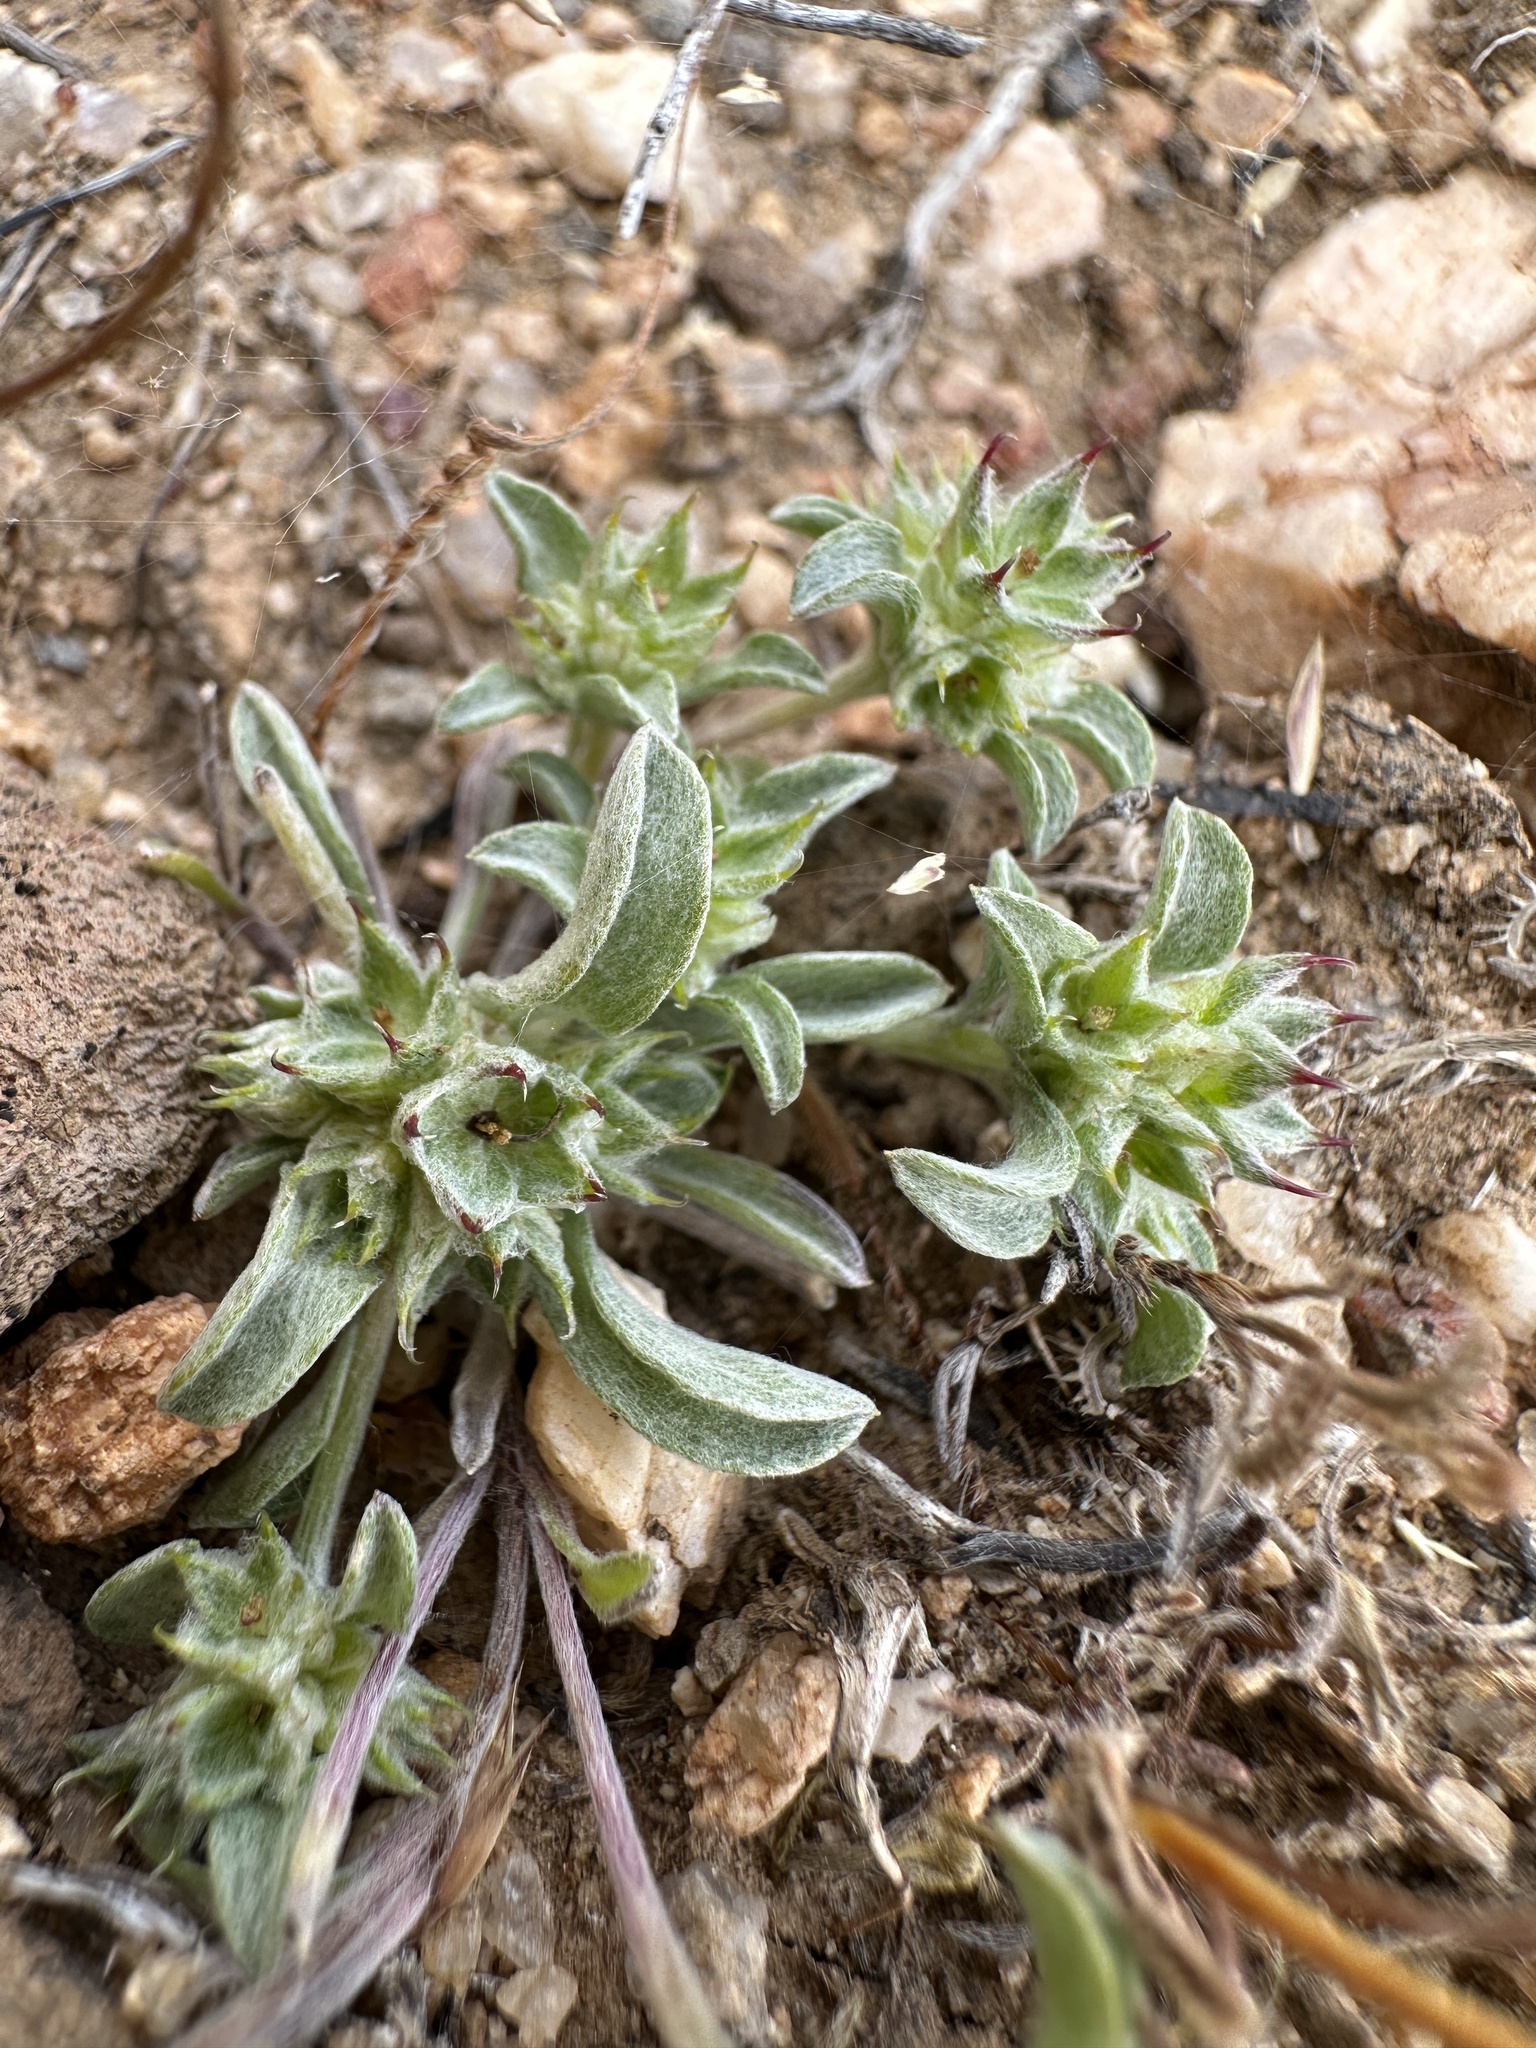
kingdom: Plantae
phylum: Tracheophyta
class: Magnoliopsida
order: Asterales
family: Asteraceae
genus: Ancistrocarphus
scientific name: Ancistrocarphus filagineus
